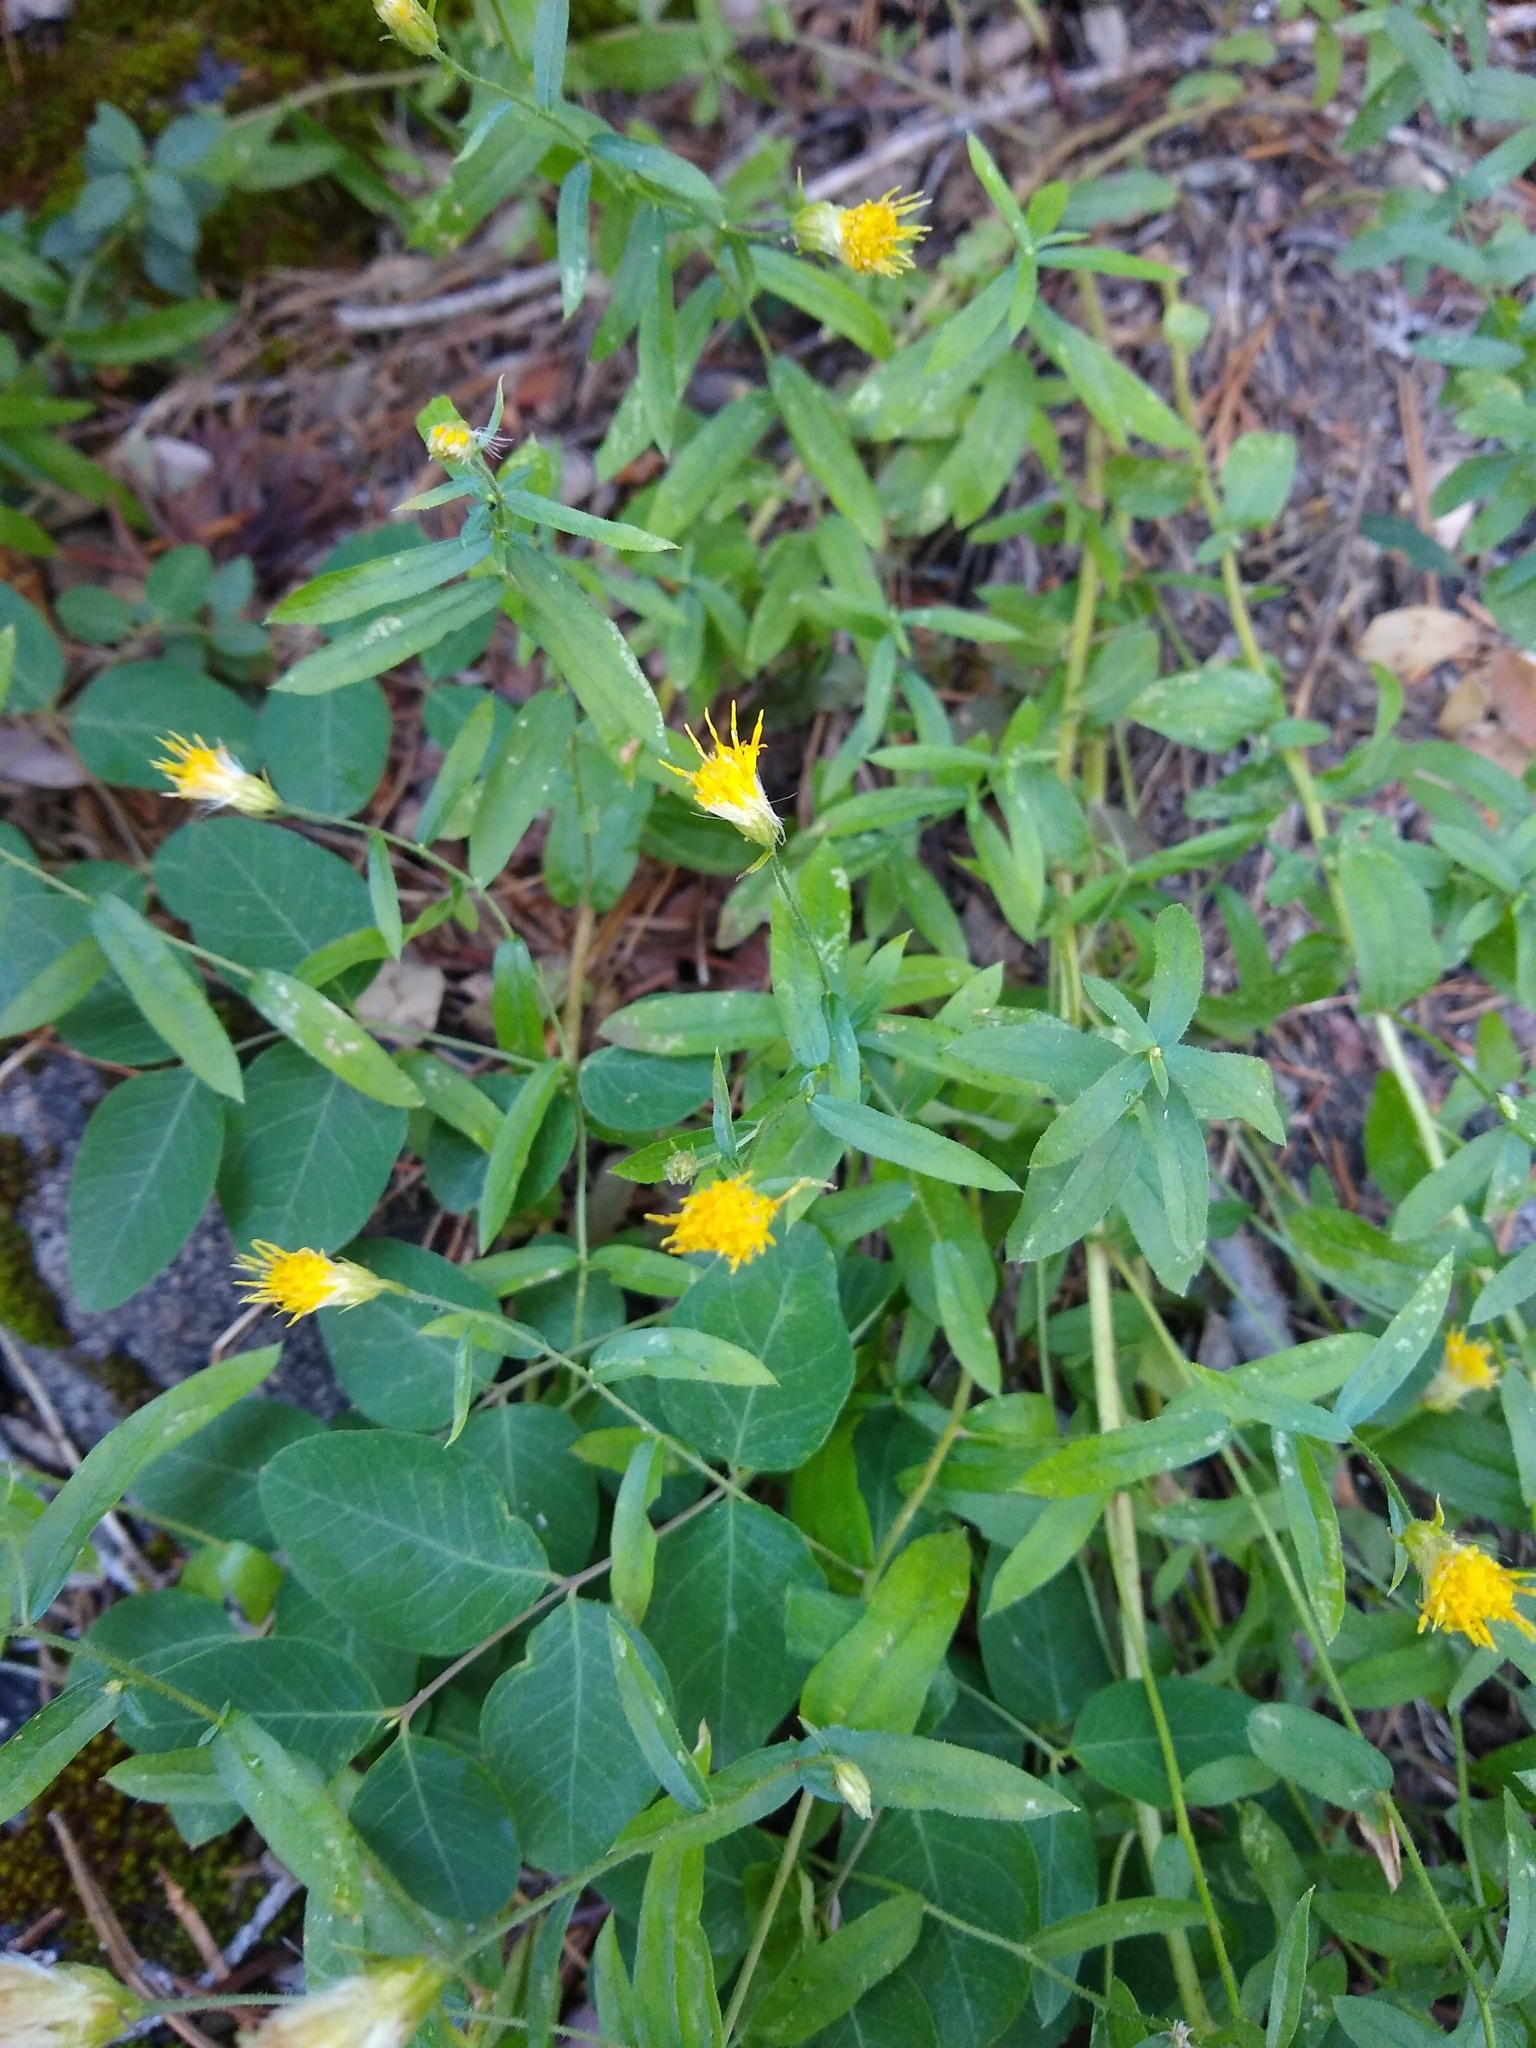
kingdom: Plantae
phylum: Tracheophyta
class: Magnoliopsida
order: Asterales
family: Asteraceae
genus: Eucephalus
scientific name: Eucephalus breweri
